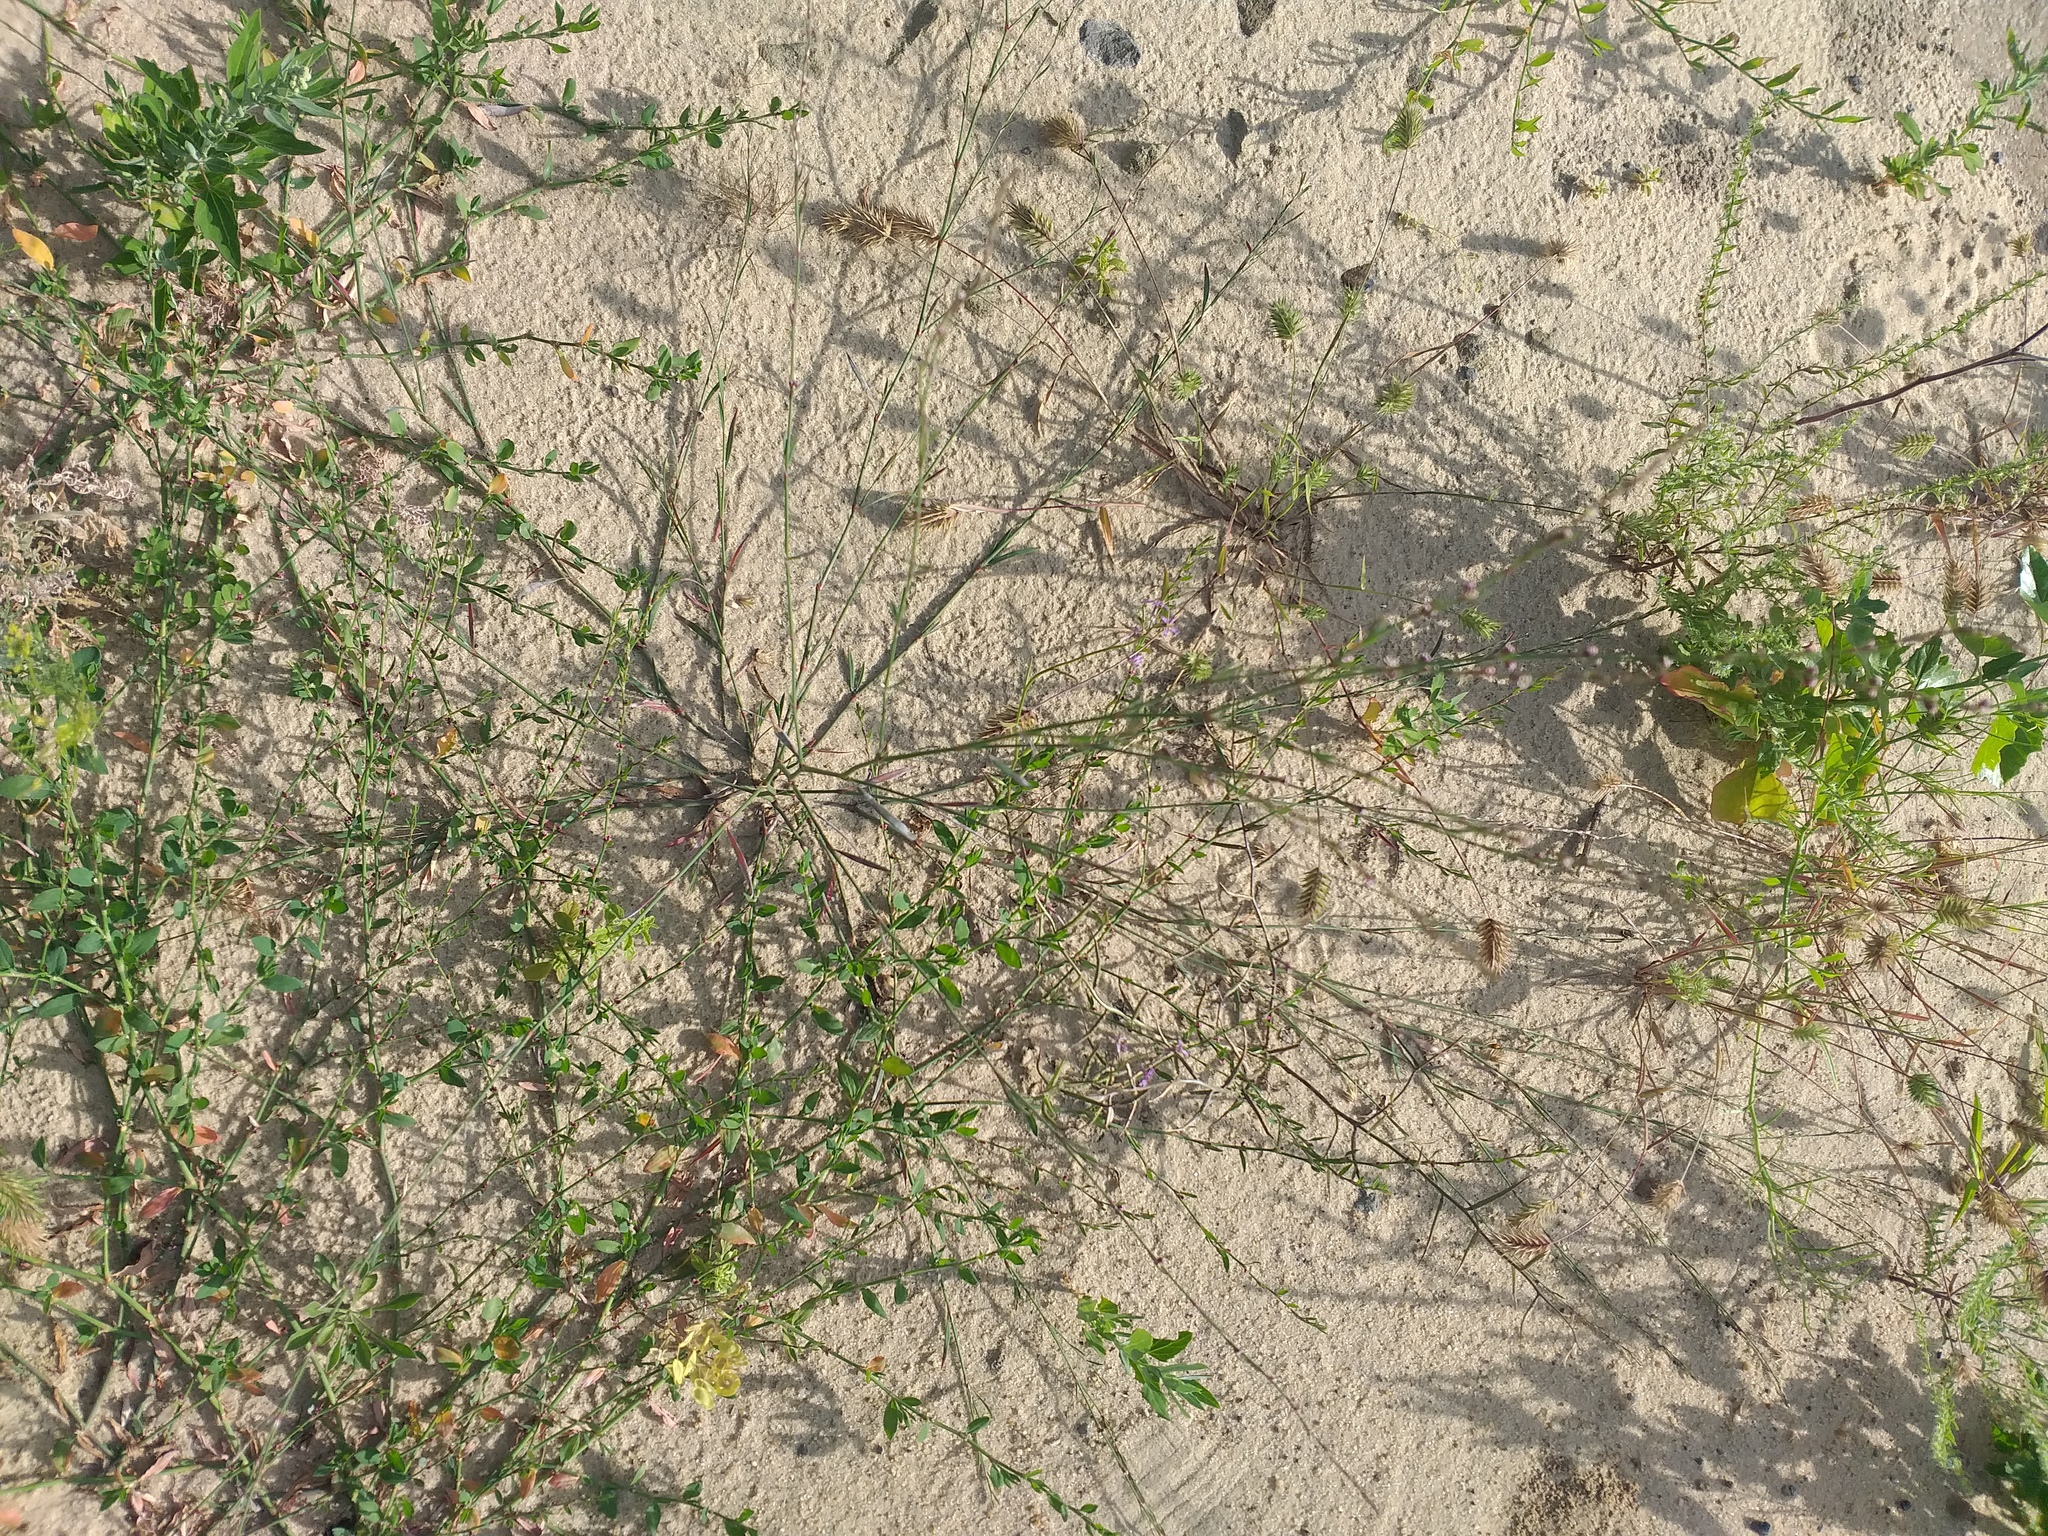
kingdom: Plantae
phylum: Tracheophyta
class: Magnoliopsida
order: Caryophyllales
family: Polygonaceae
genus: Polygonum
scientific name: Polygonum
